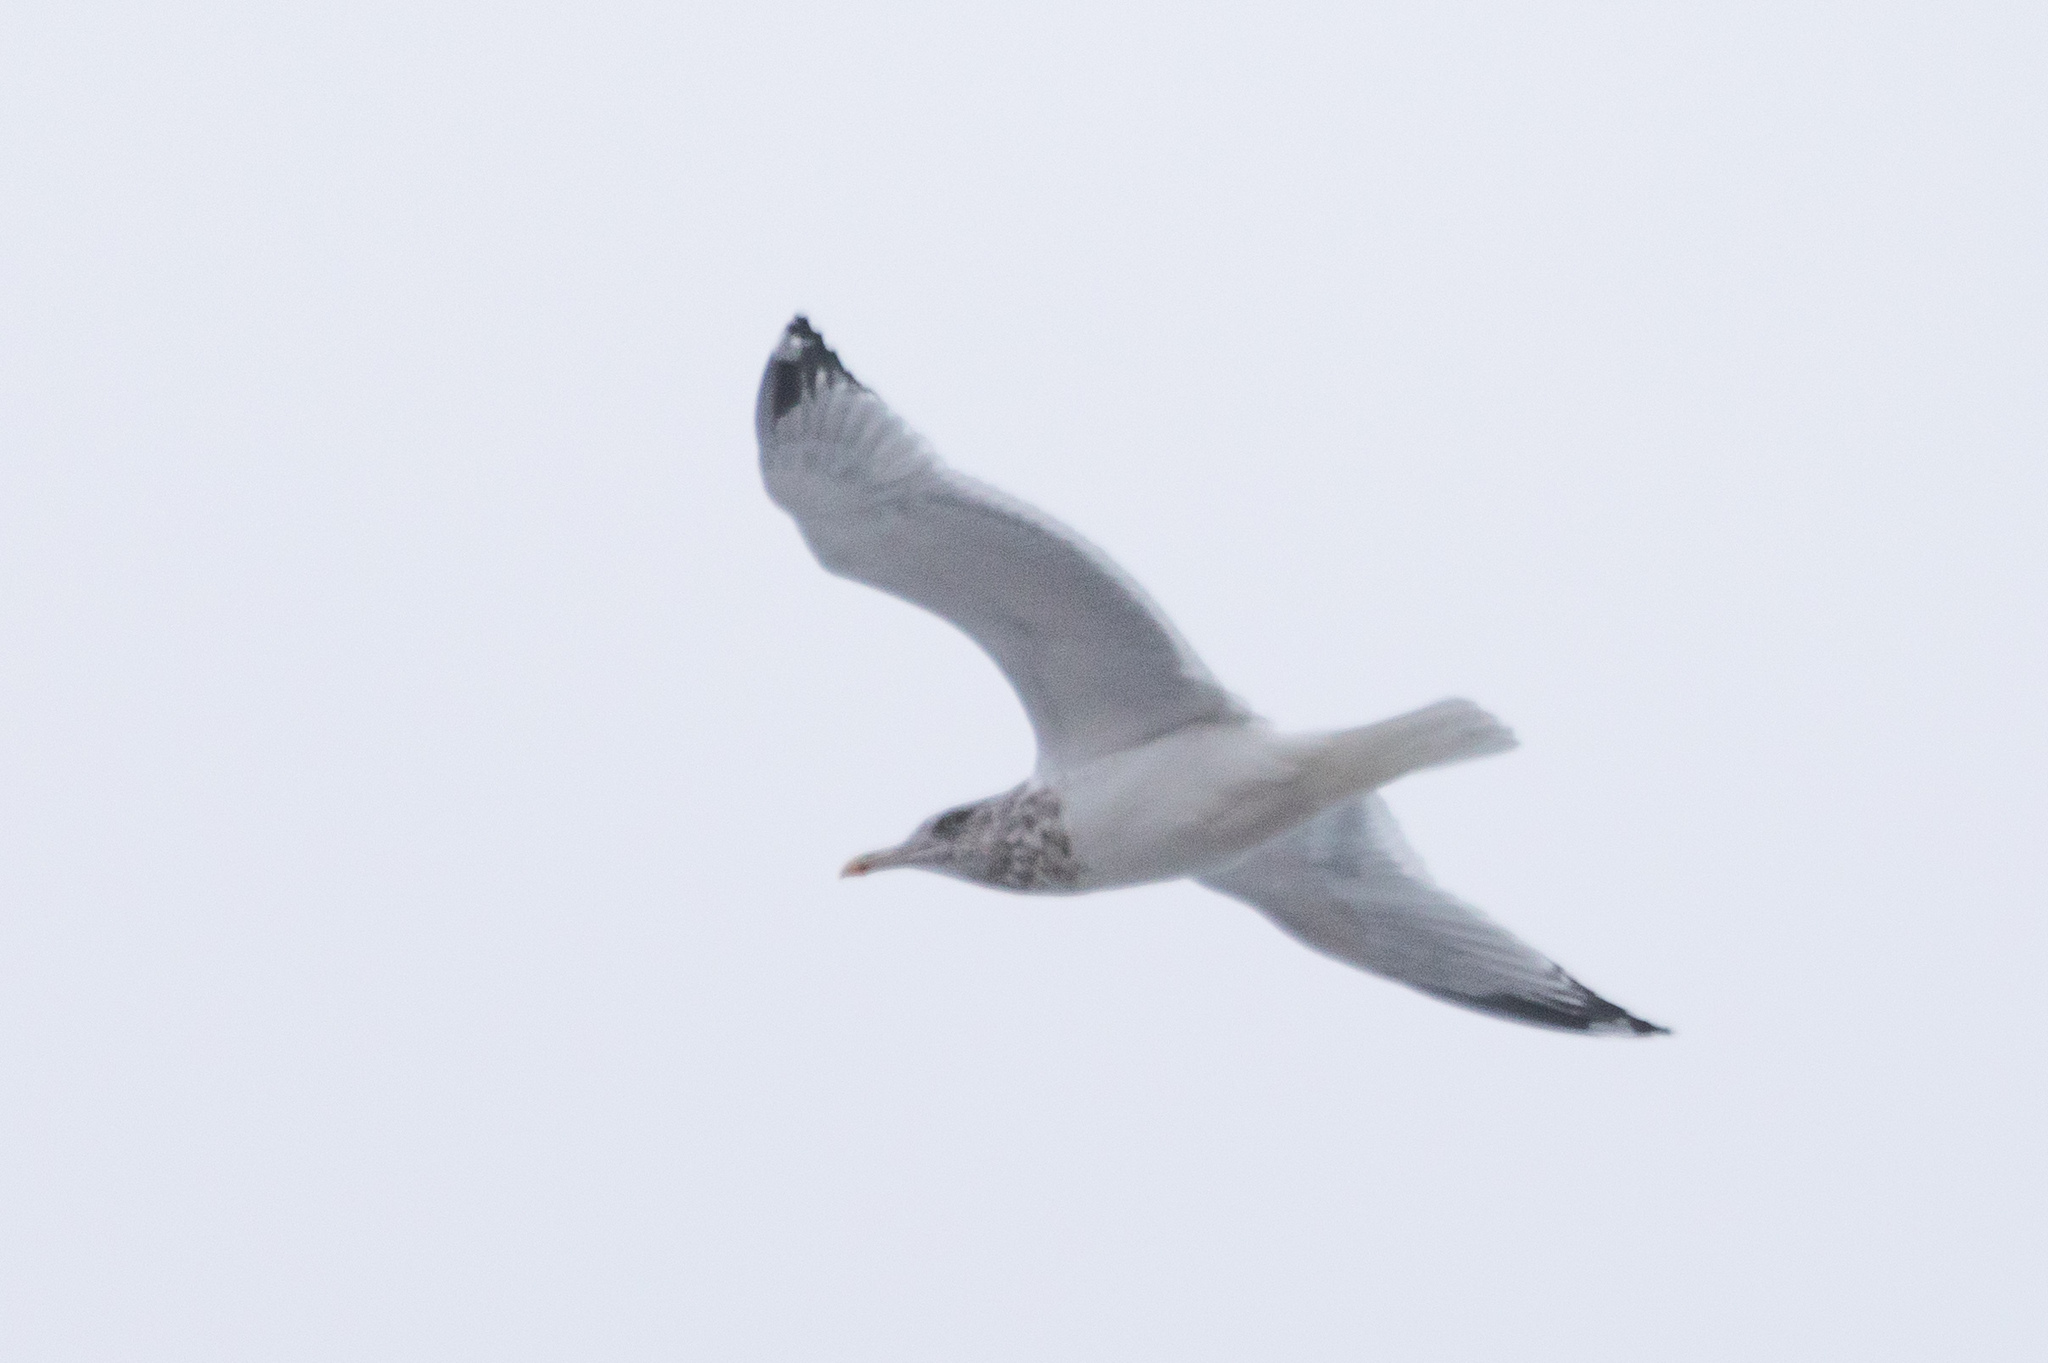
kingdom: Animalia
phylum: Chordata
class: Aves
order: Charadriiformes
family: Laridae
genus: Larus
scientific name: Larus argentatus
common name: Herring gull
